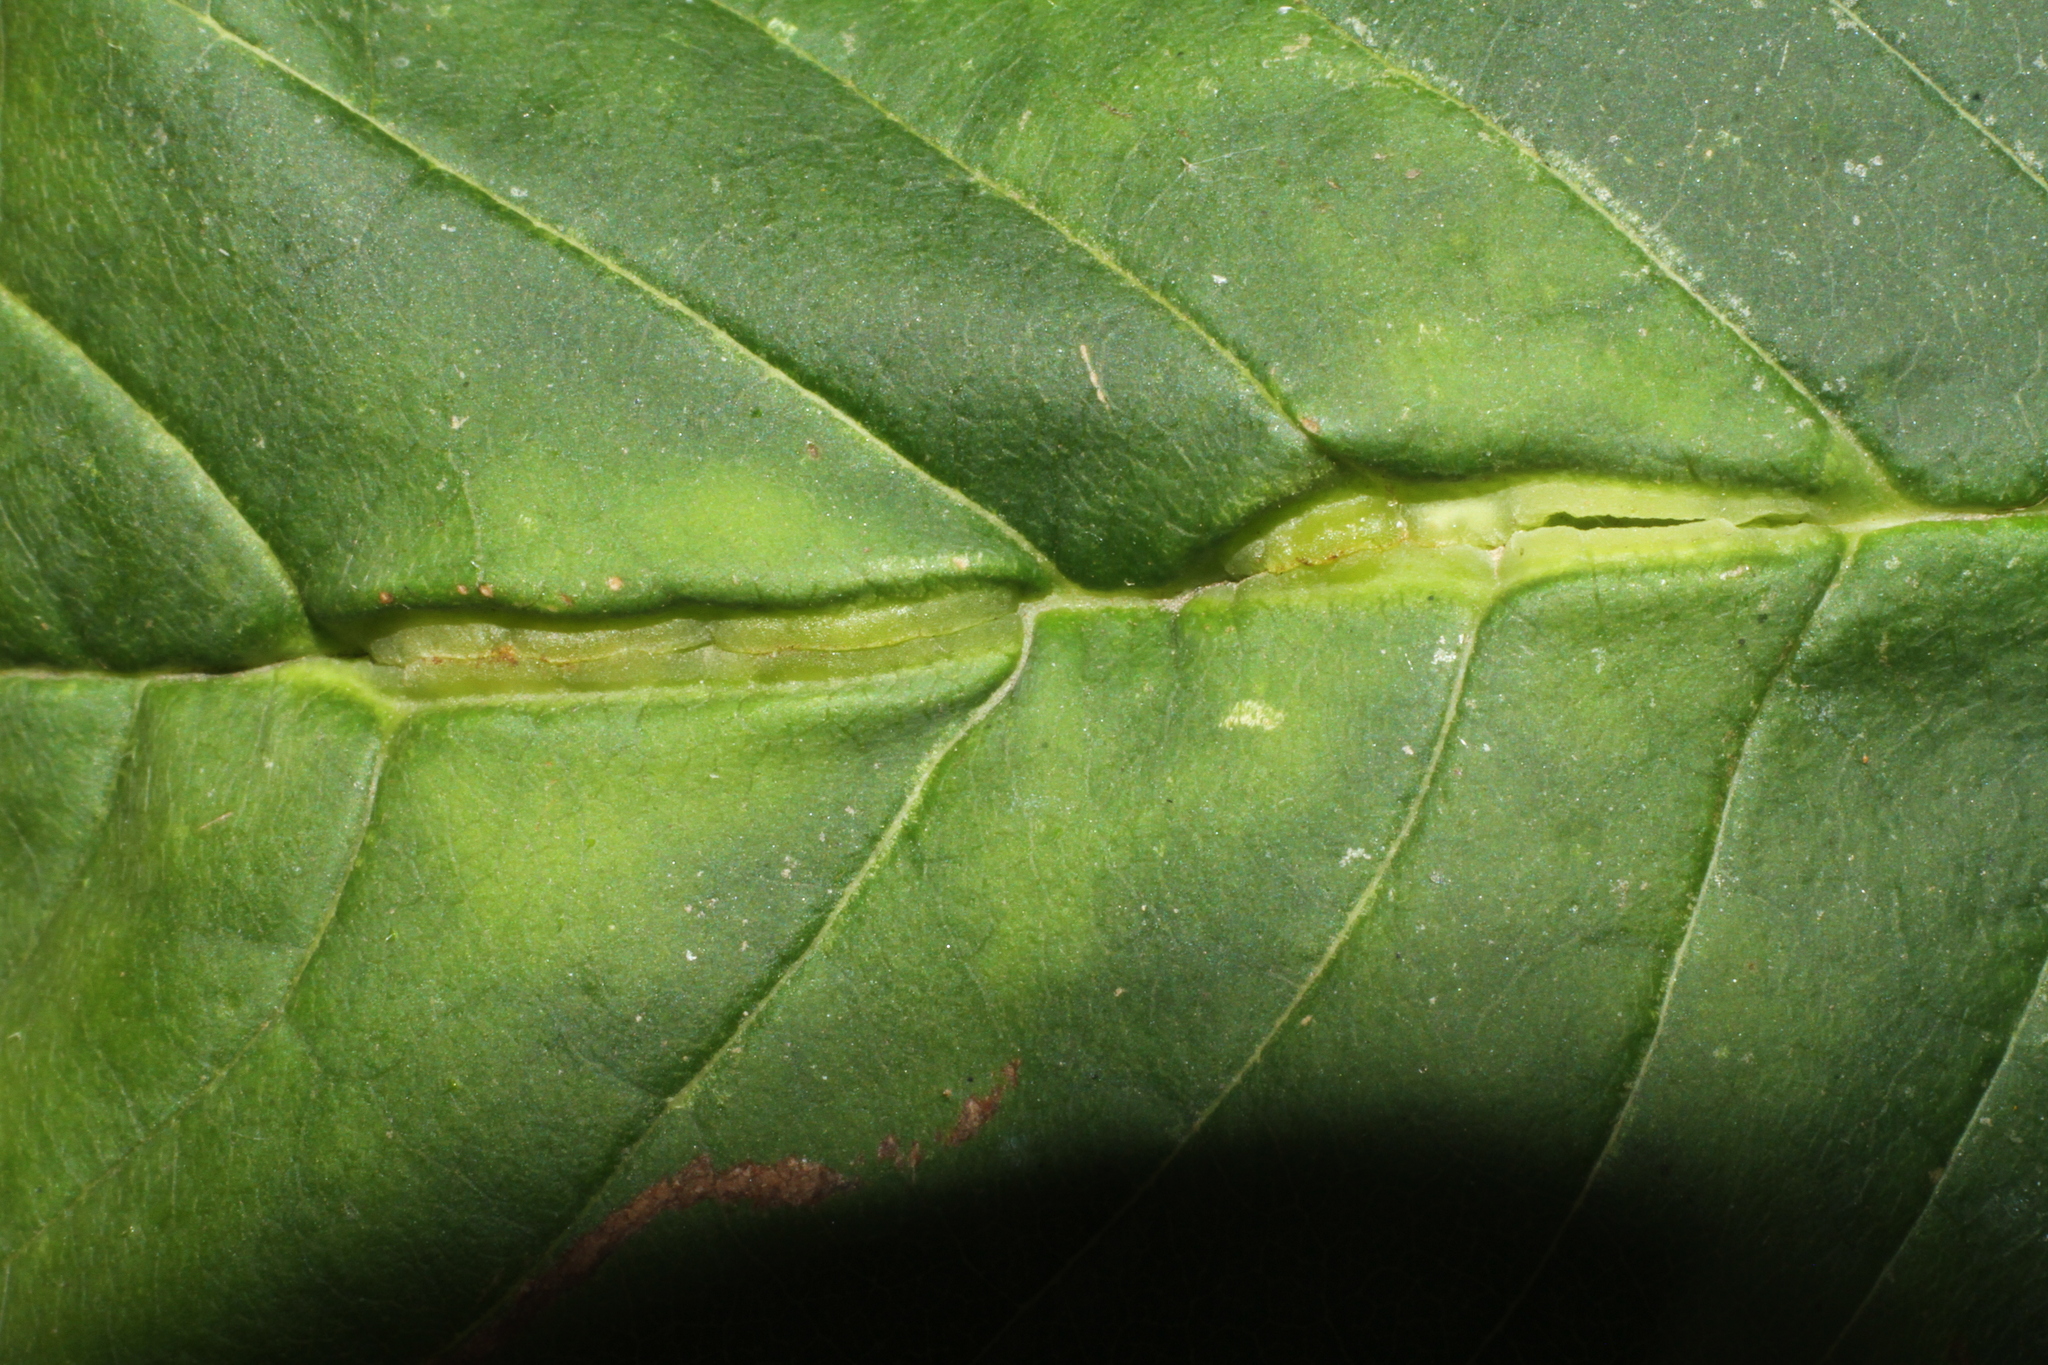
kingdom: Animalia
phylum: Arthropoda
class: Insecta
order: Diptera
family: Cecidomyiidae
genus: Dasineura
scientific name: Dasineura fraxini
